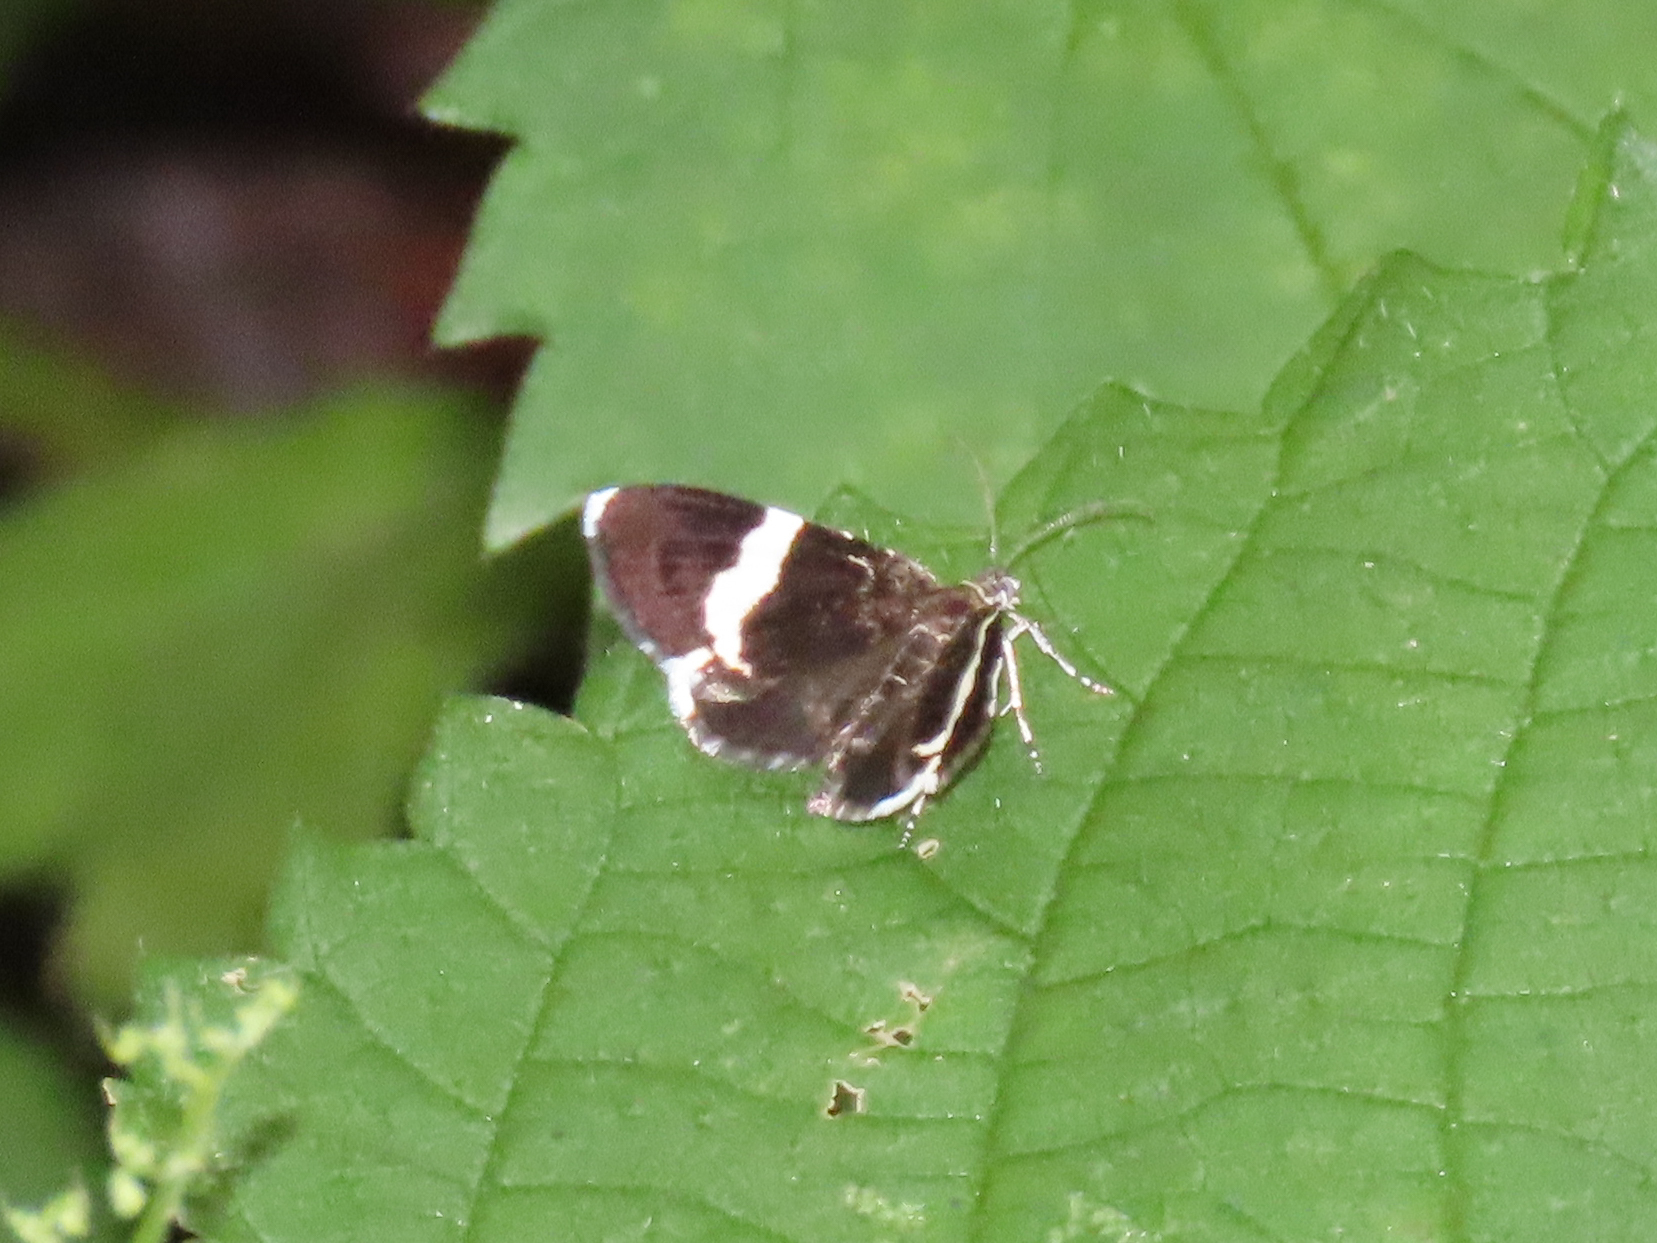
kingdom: Animalia
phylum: Arthropoda
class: Insecta
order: Lepidoptera
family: Geometridae
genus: Trichodezia
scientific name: Trichodezia albovittata
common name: White striped black
